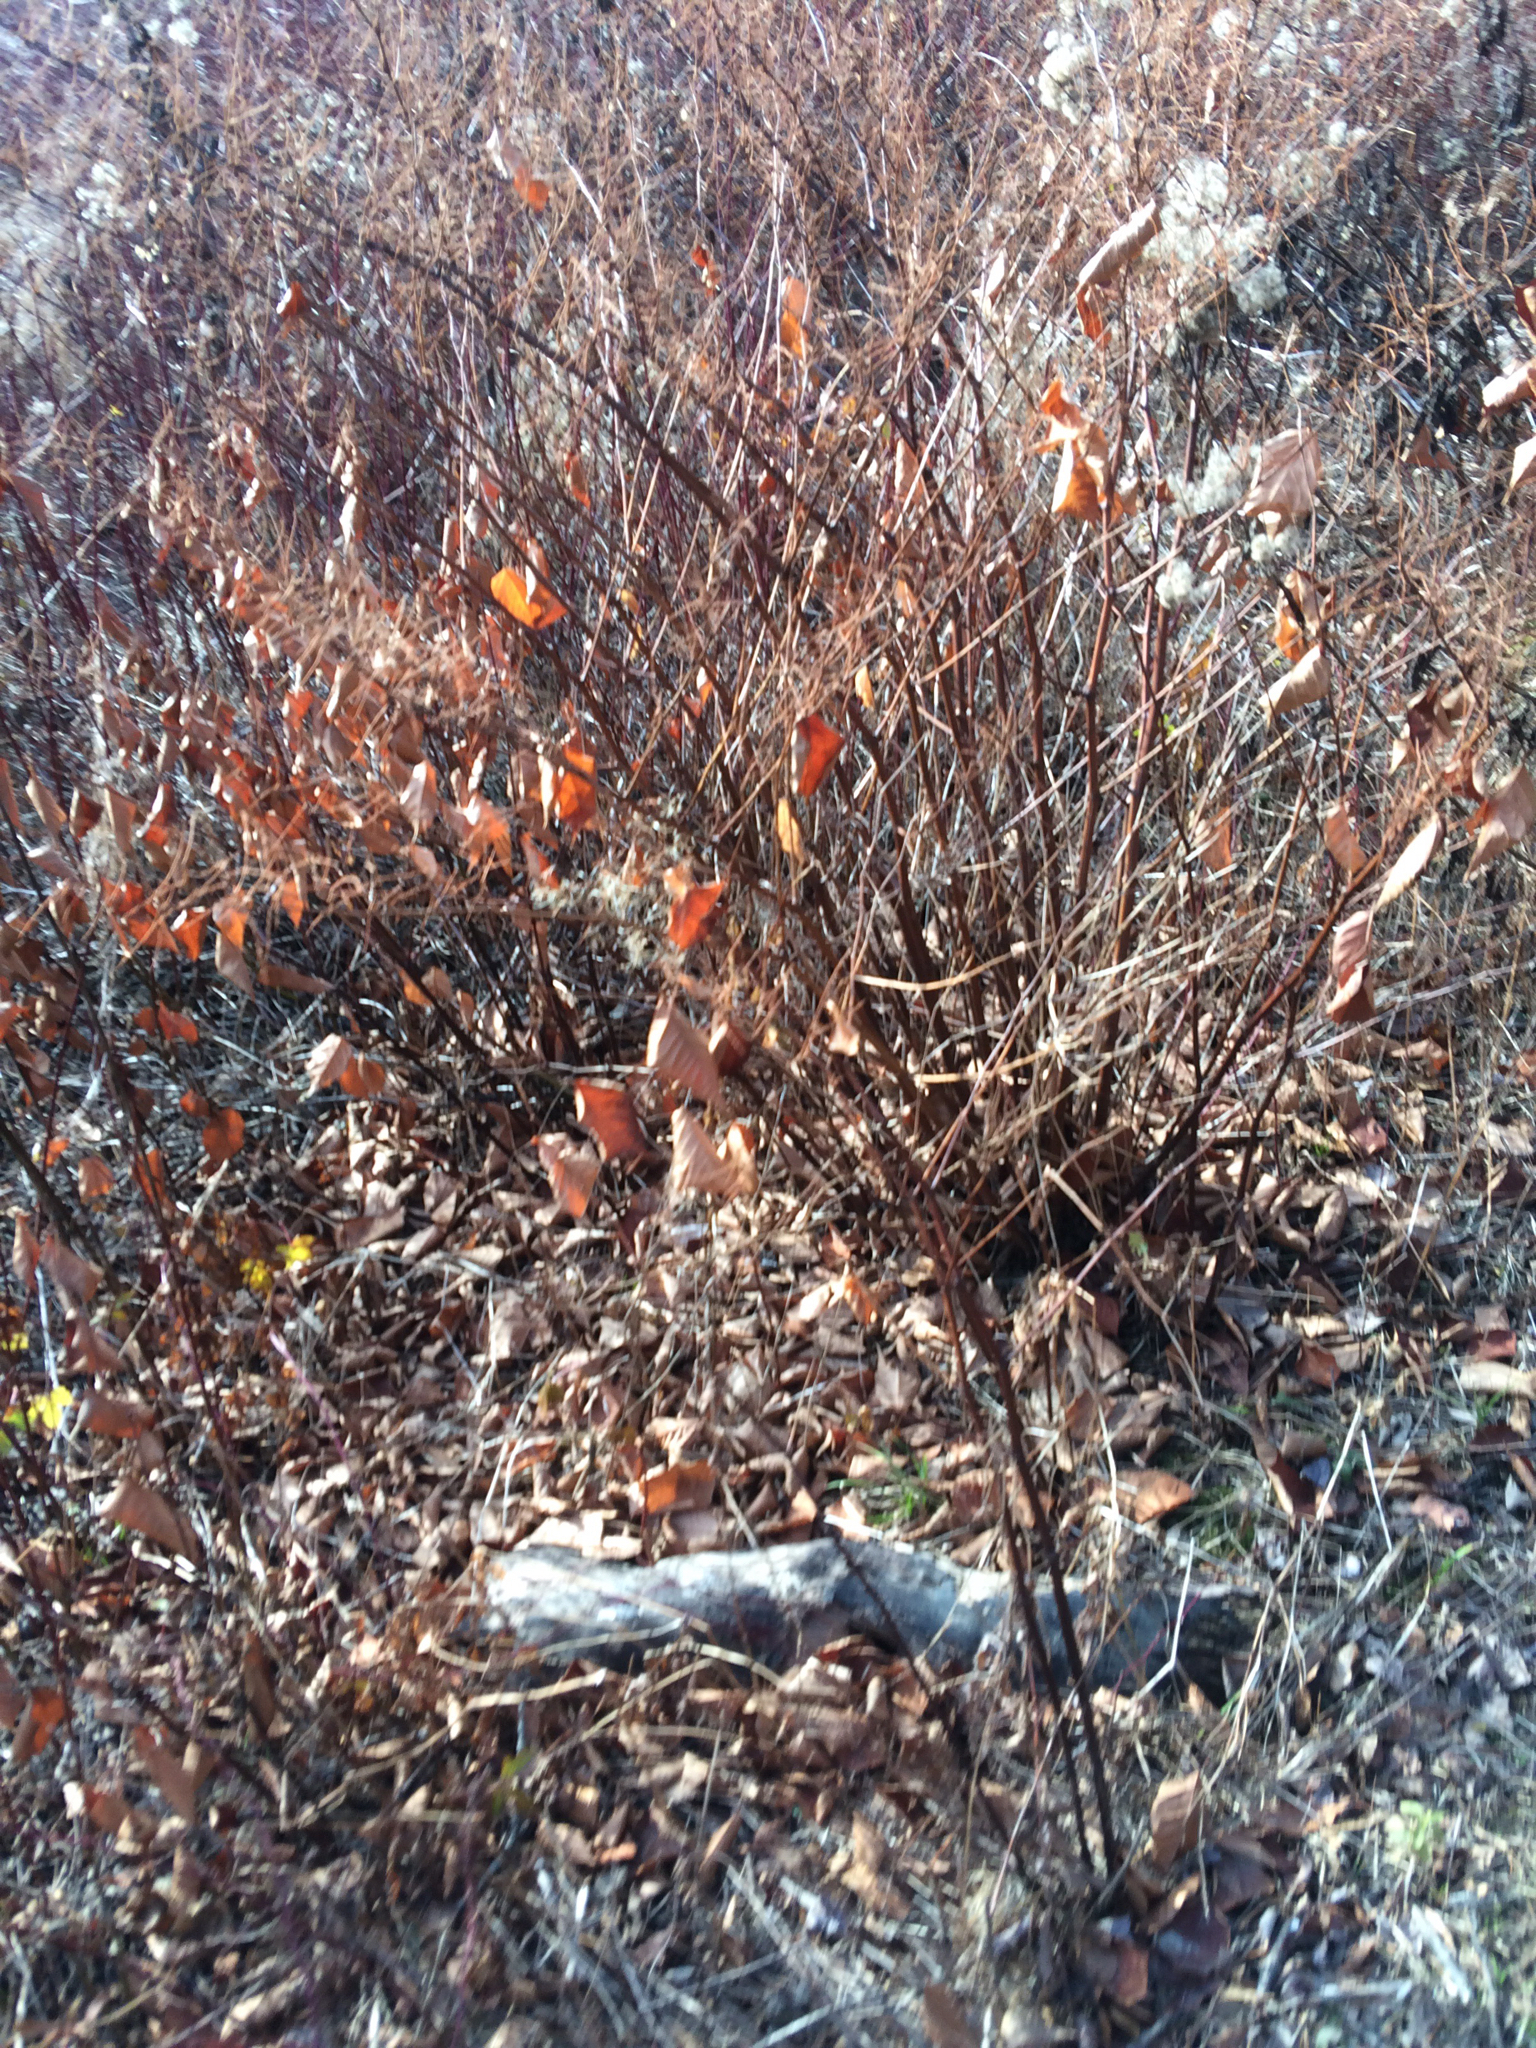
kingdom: Plantae
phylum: Tracheophyta
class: Magnoliopsida
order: Caryophyllales
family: Polygonaceae
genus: Reynoutria
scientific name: Reynoutria japonica
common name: Japanese knotweed
